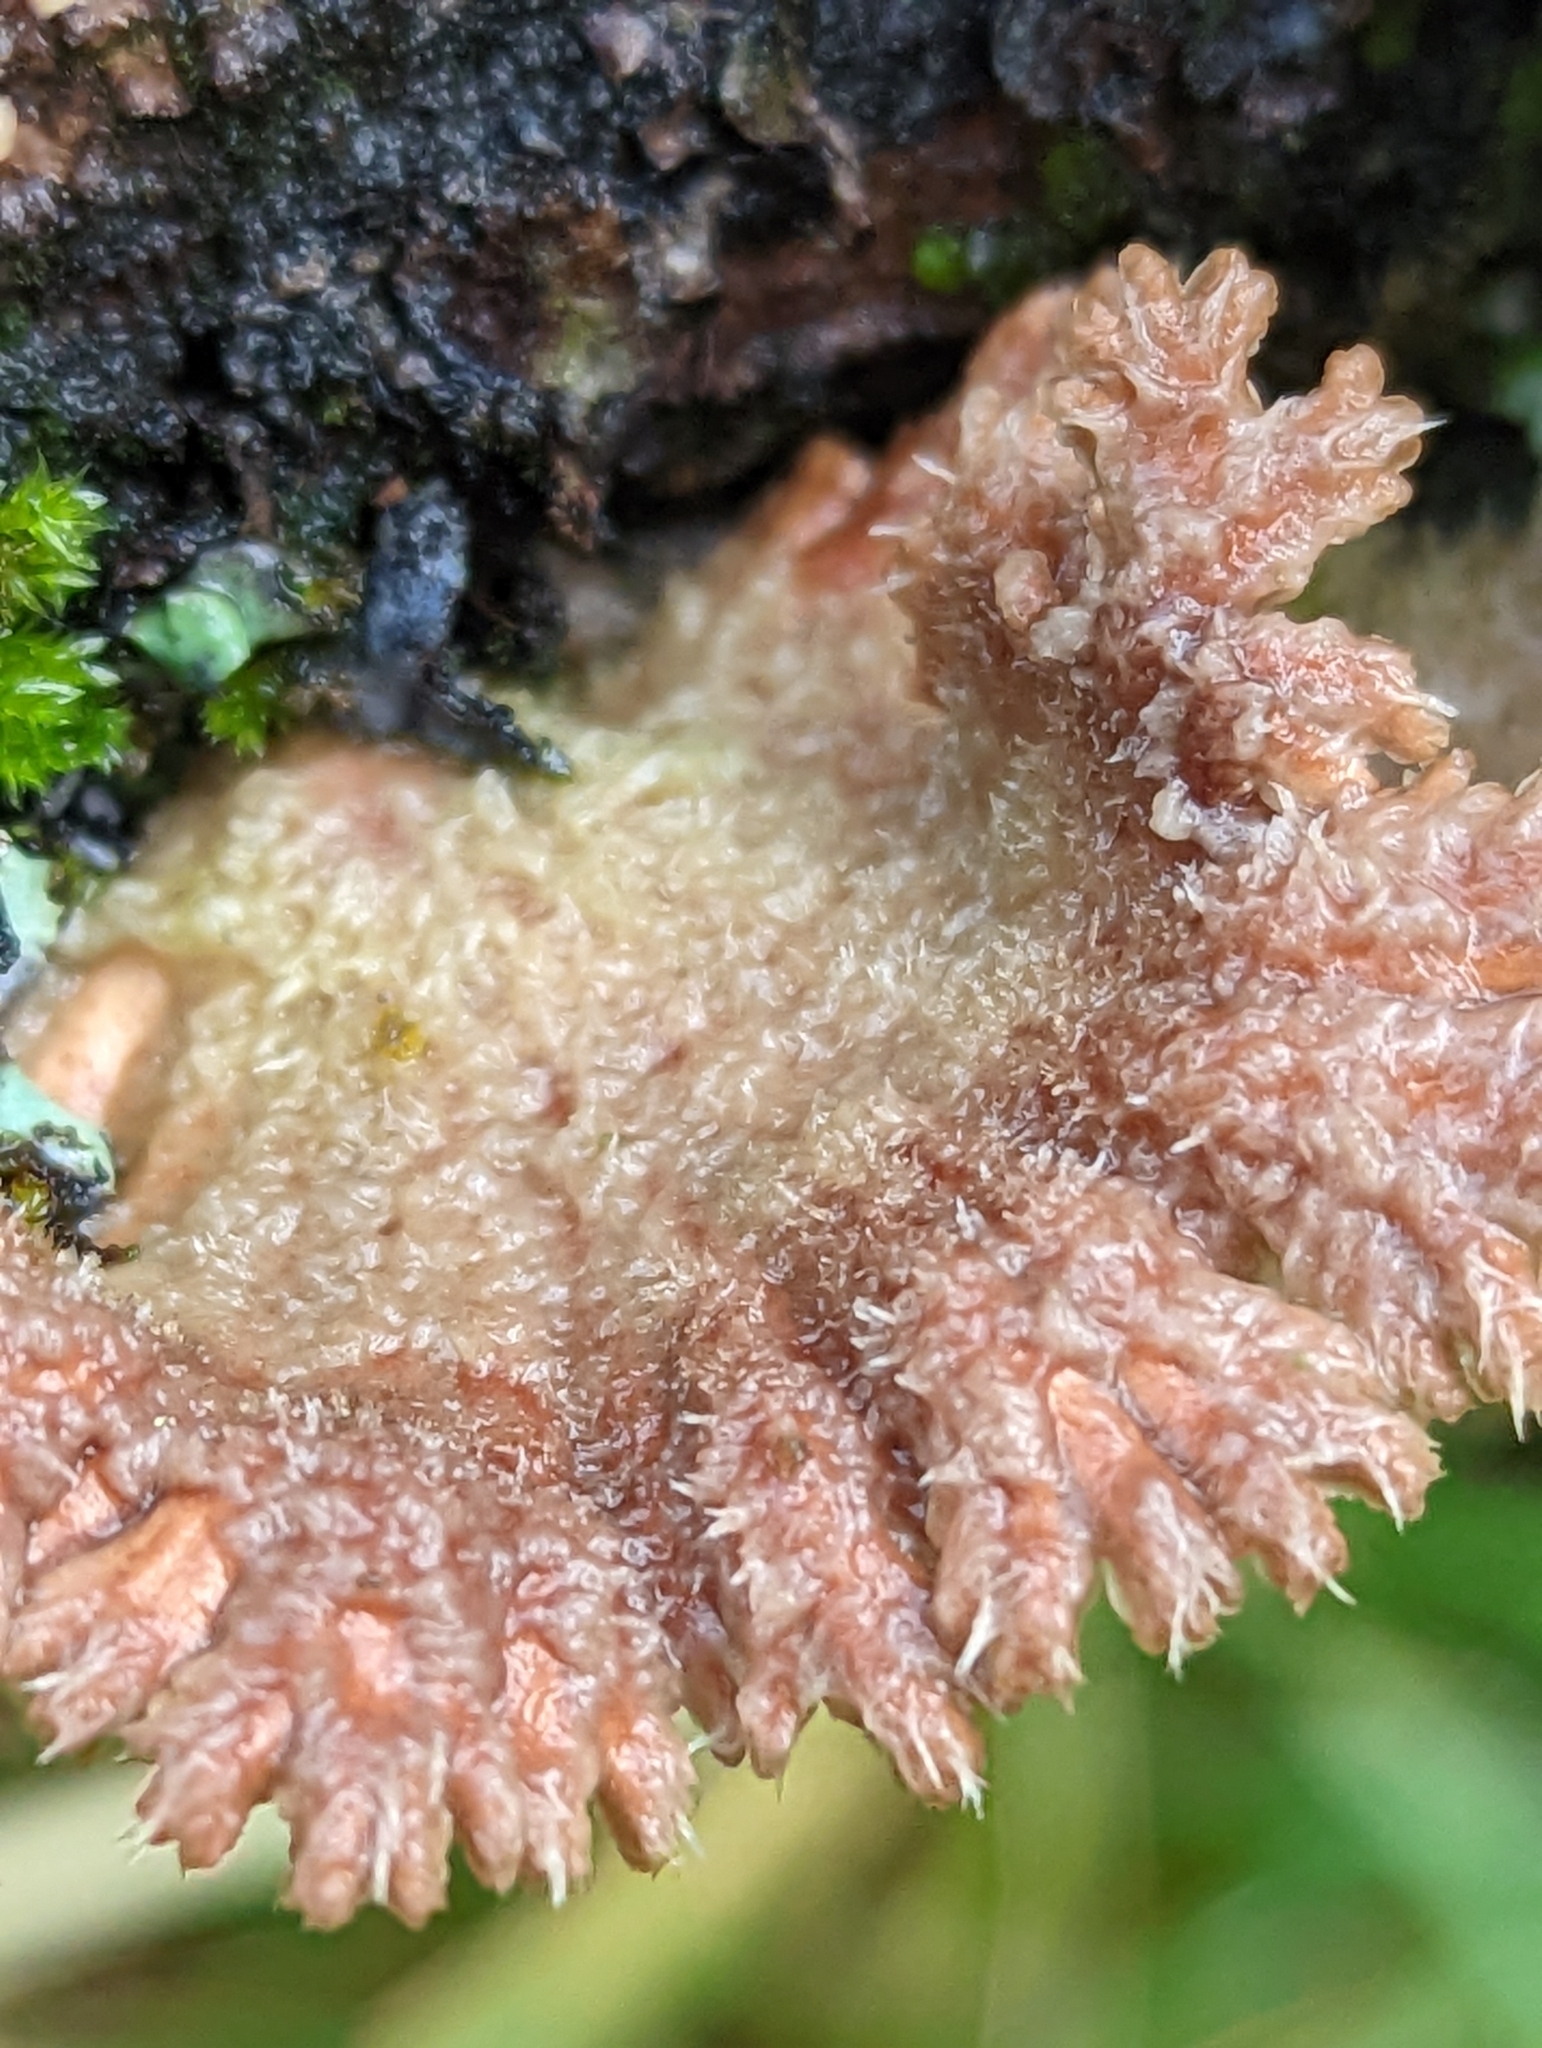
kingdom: Fungi
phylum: Basidiomycota
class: Agaricomycetes
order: Agaricales
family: Schizophyllaceae
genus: Schizophyllum
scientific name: Schizophyllum commune
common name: Common porecrust
